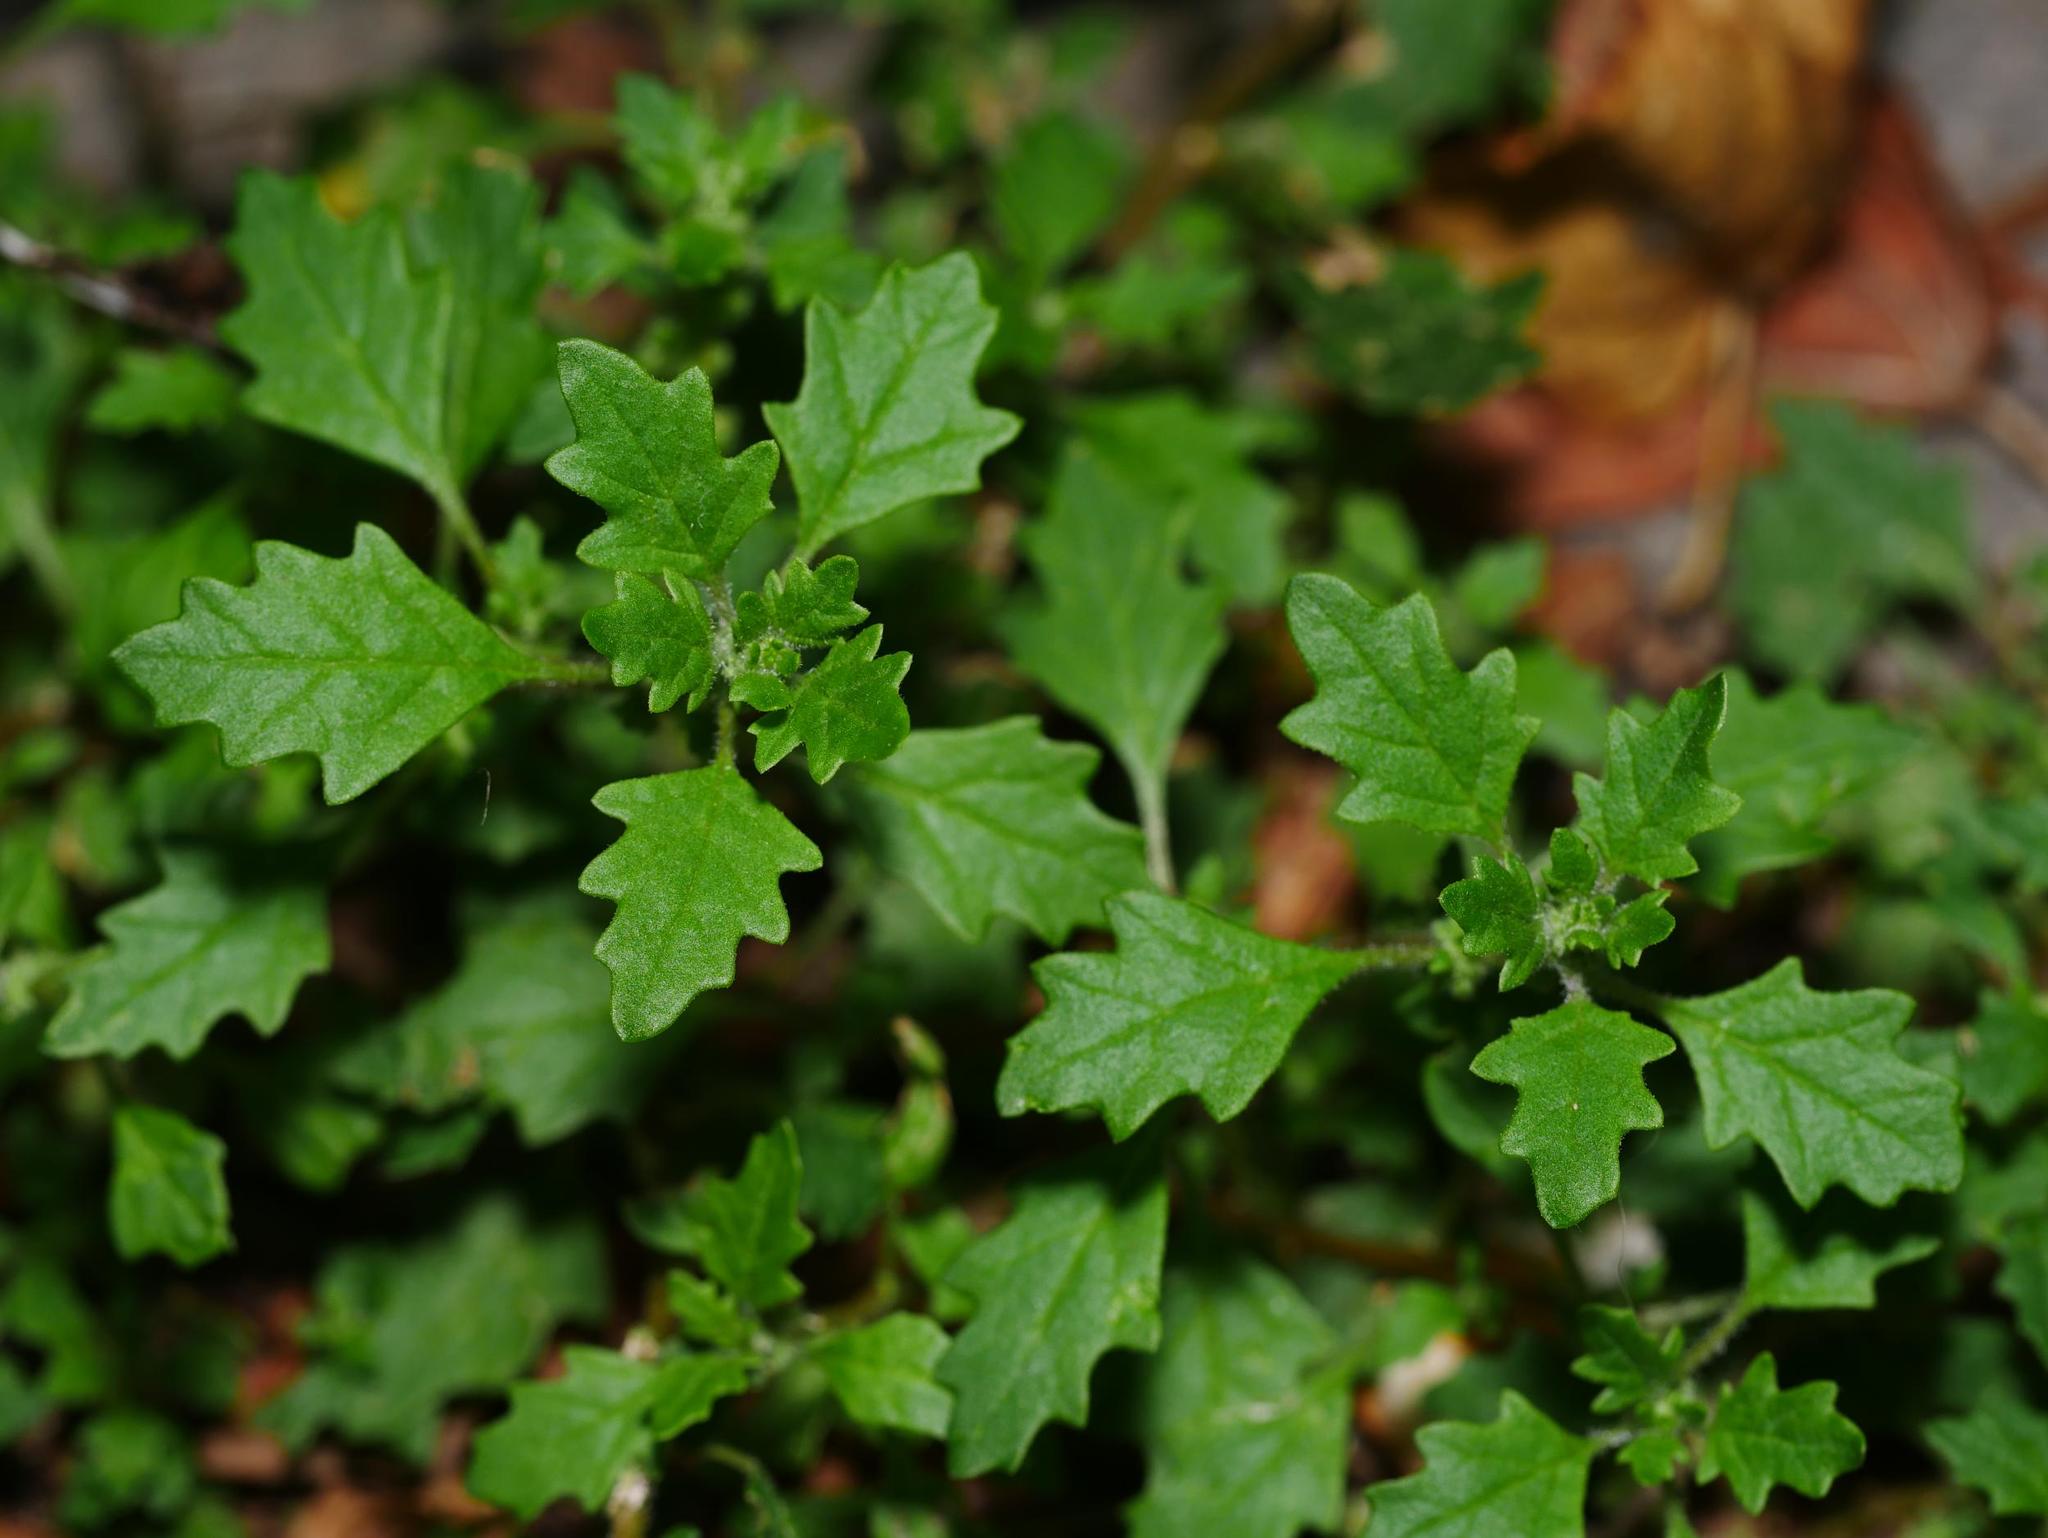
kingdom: Plantae
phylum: Tracheophyta
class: Magnoliopsida
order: Caryophyllales
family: Amaranthaceae
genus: Dysphania
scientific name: Dysphania pumilio
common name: Clammy goosefoot
